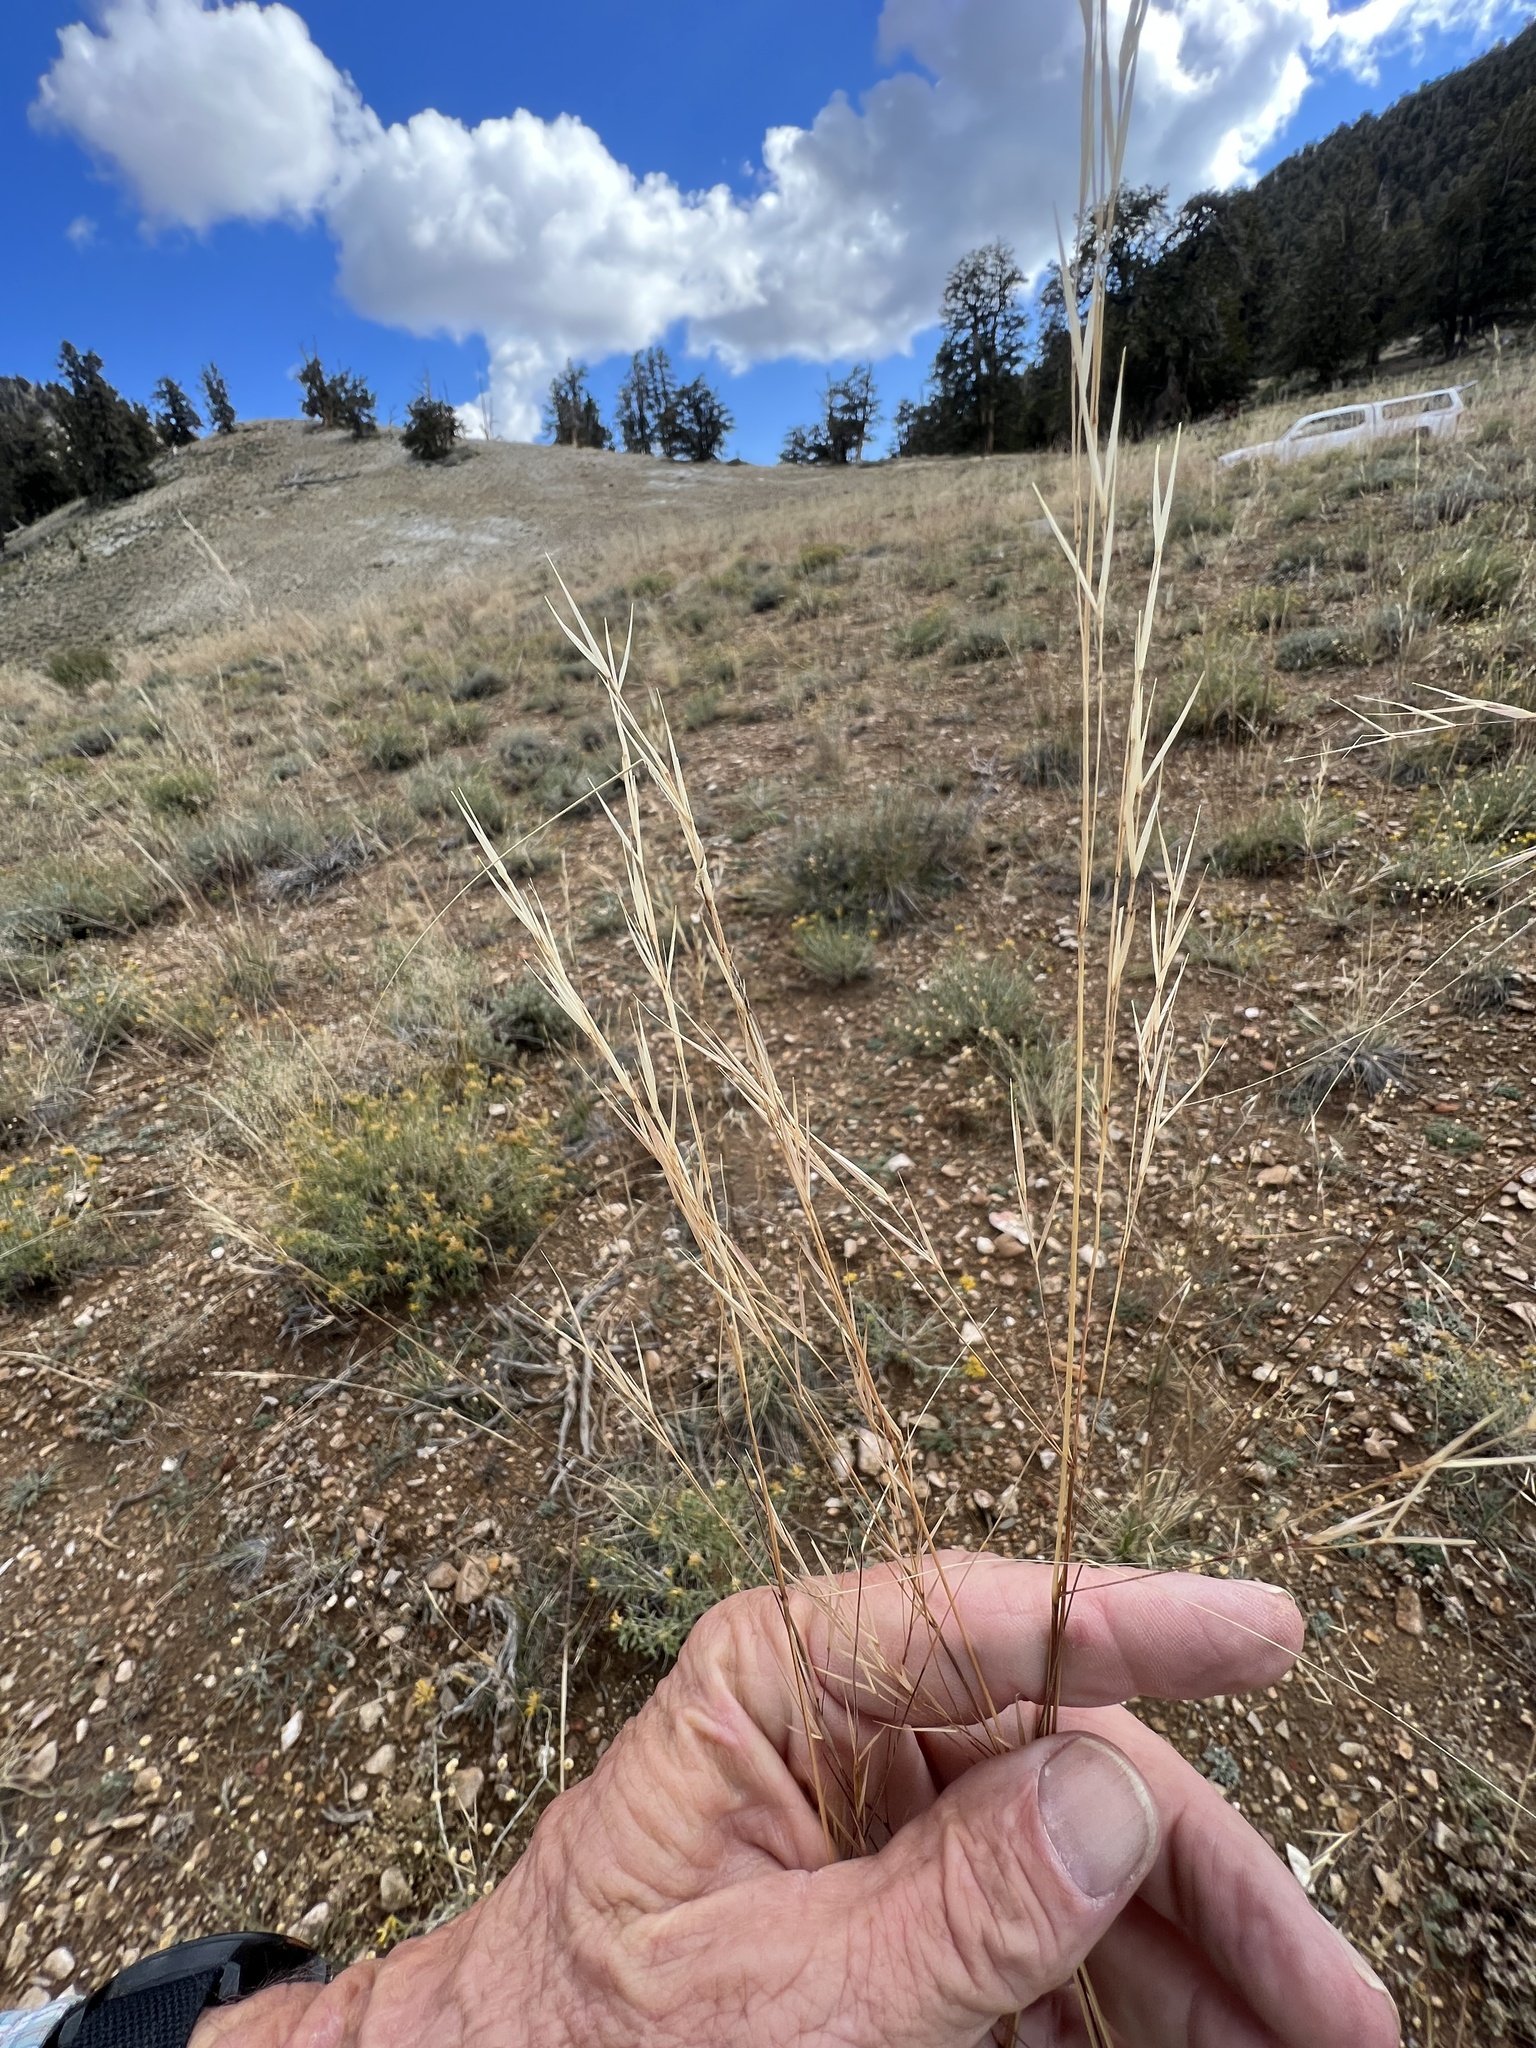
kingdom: Plantae
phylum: Tracheophyta
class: Liliopsida
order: Poales
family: Poaceae
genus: Hesperostipa
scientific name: Hesperostipa comata
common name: Needle-and-thread grass
